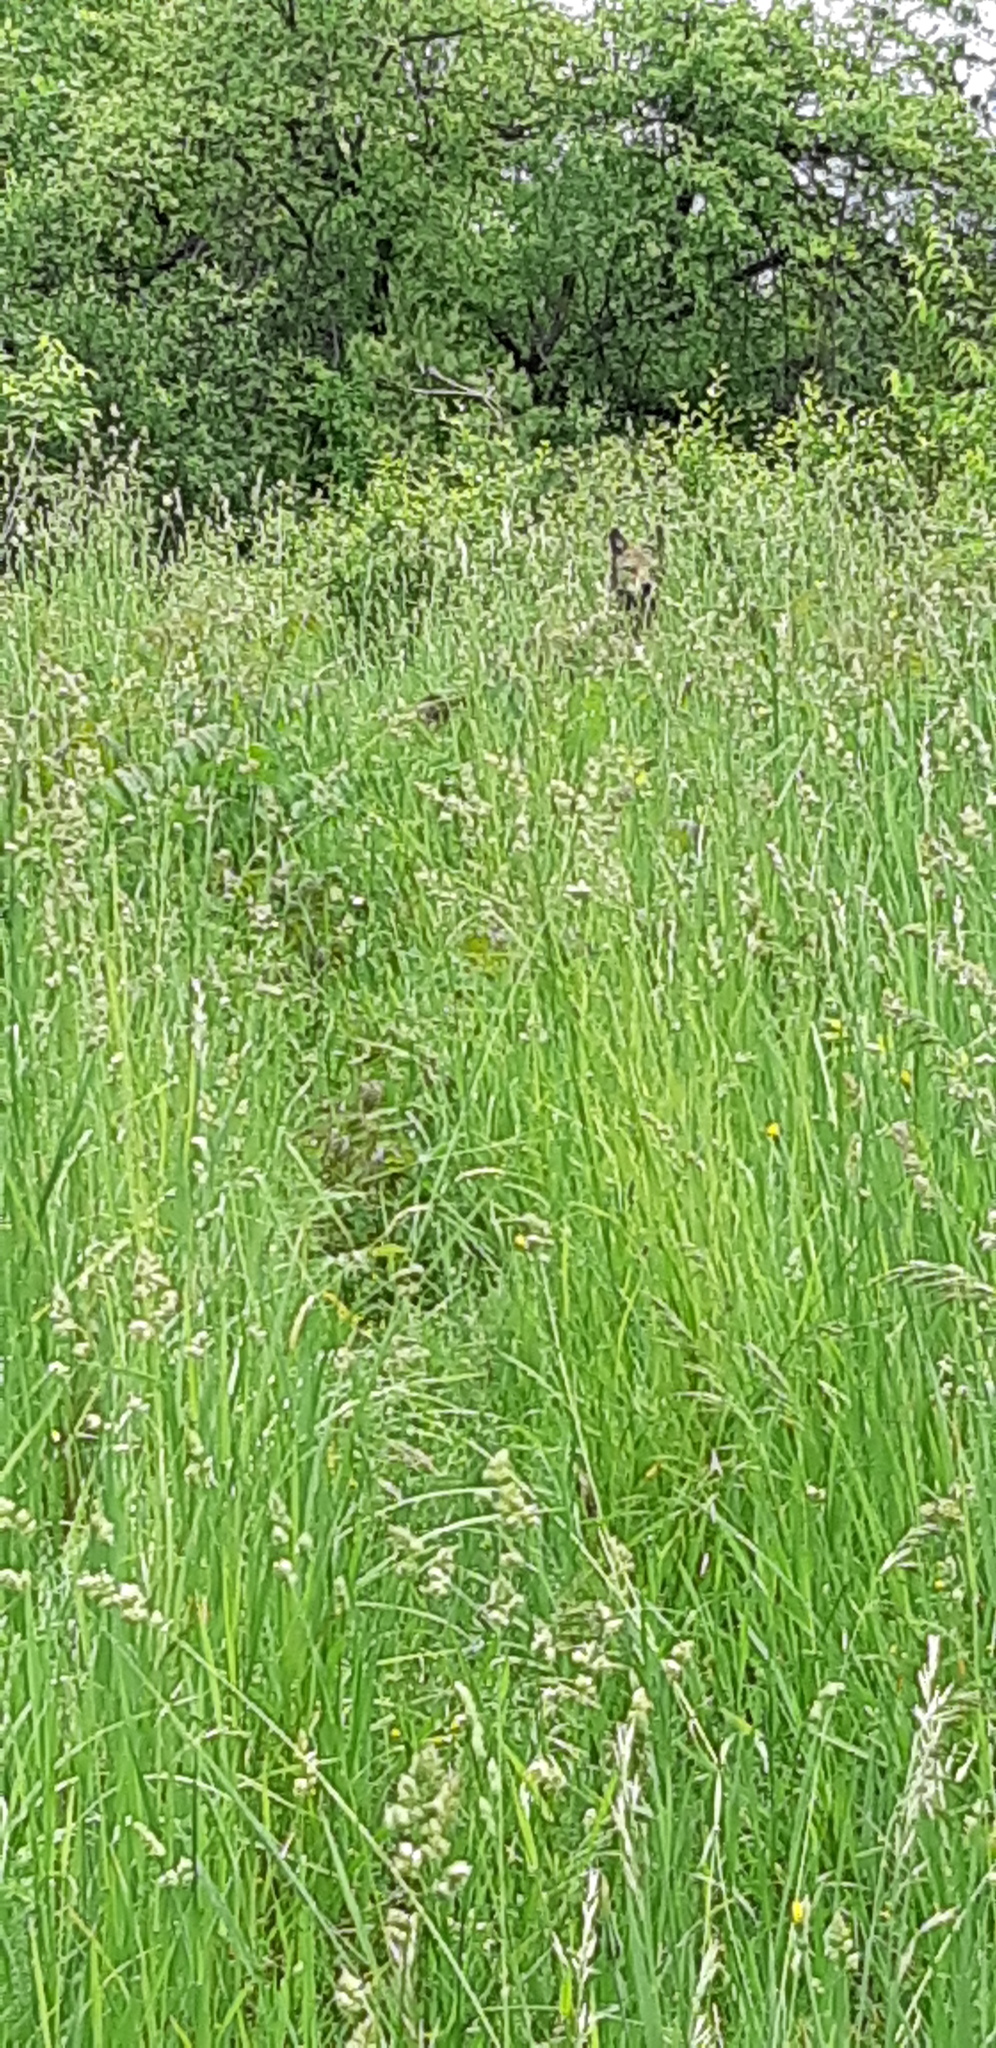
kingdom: Animalia
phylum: Chordata
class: Mammalia
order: Carnivora
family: Canidae
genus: Canis
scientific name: Canis latrans
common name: Coyote
